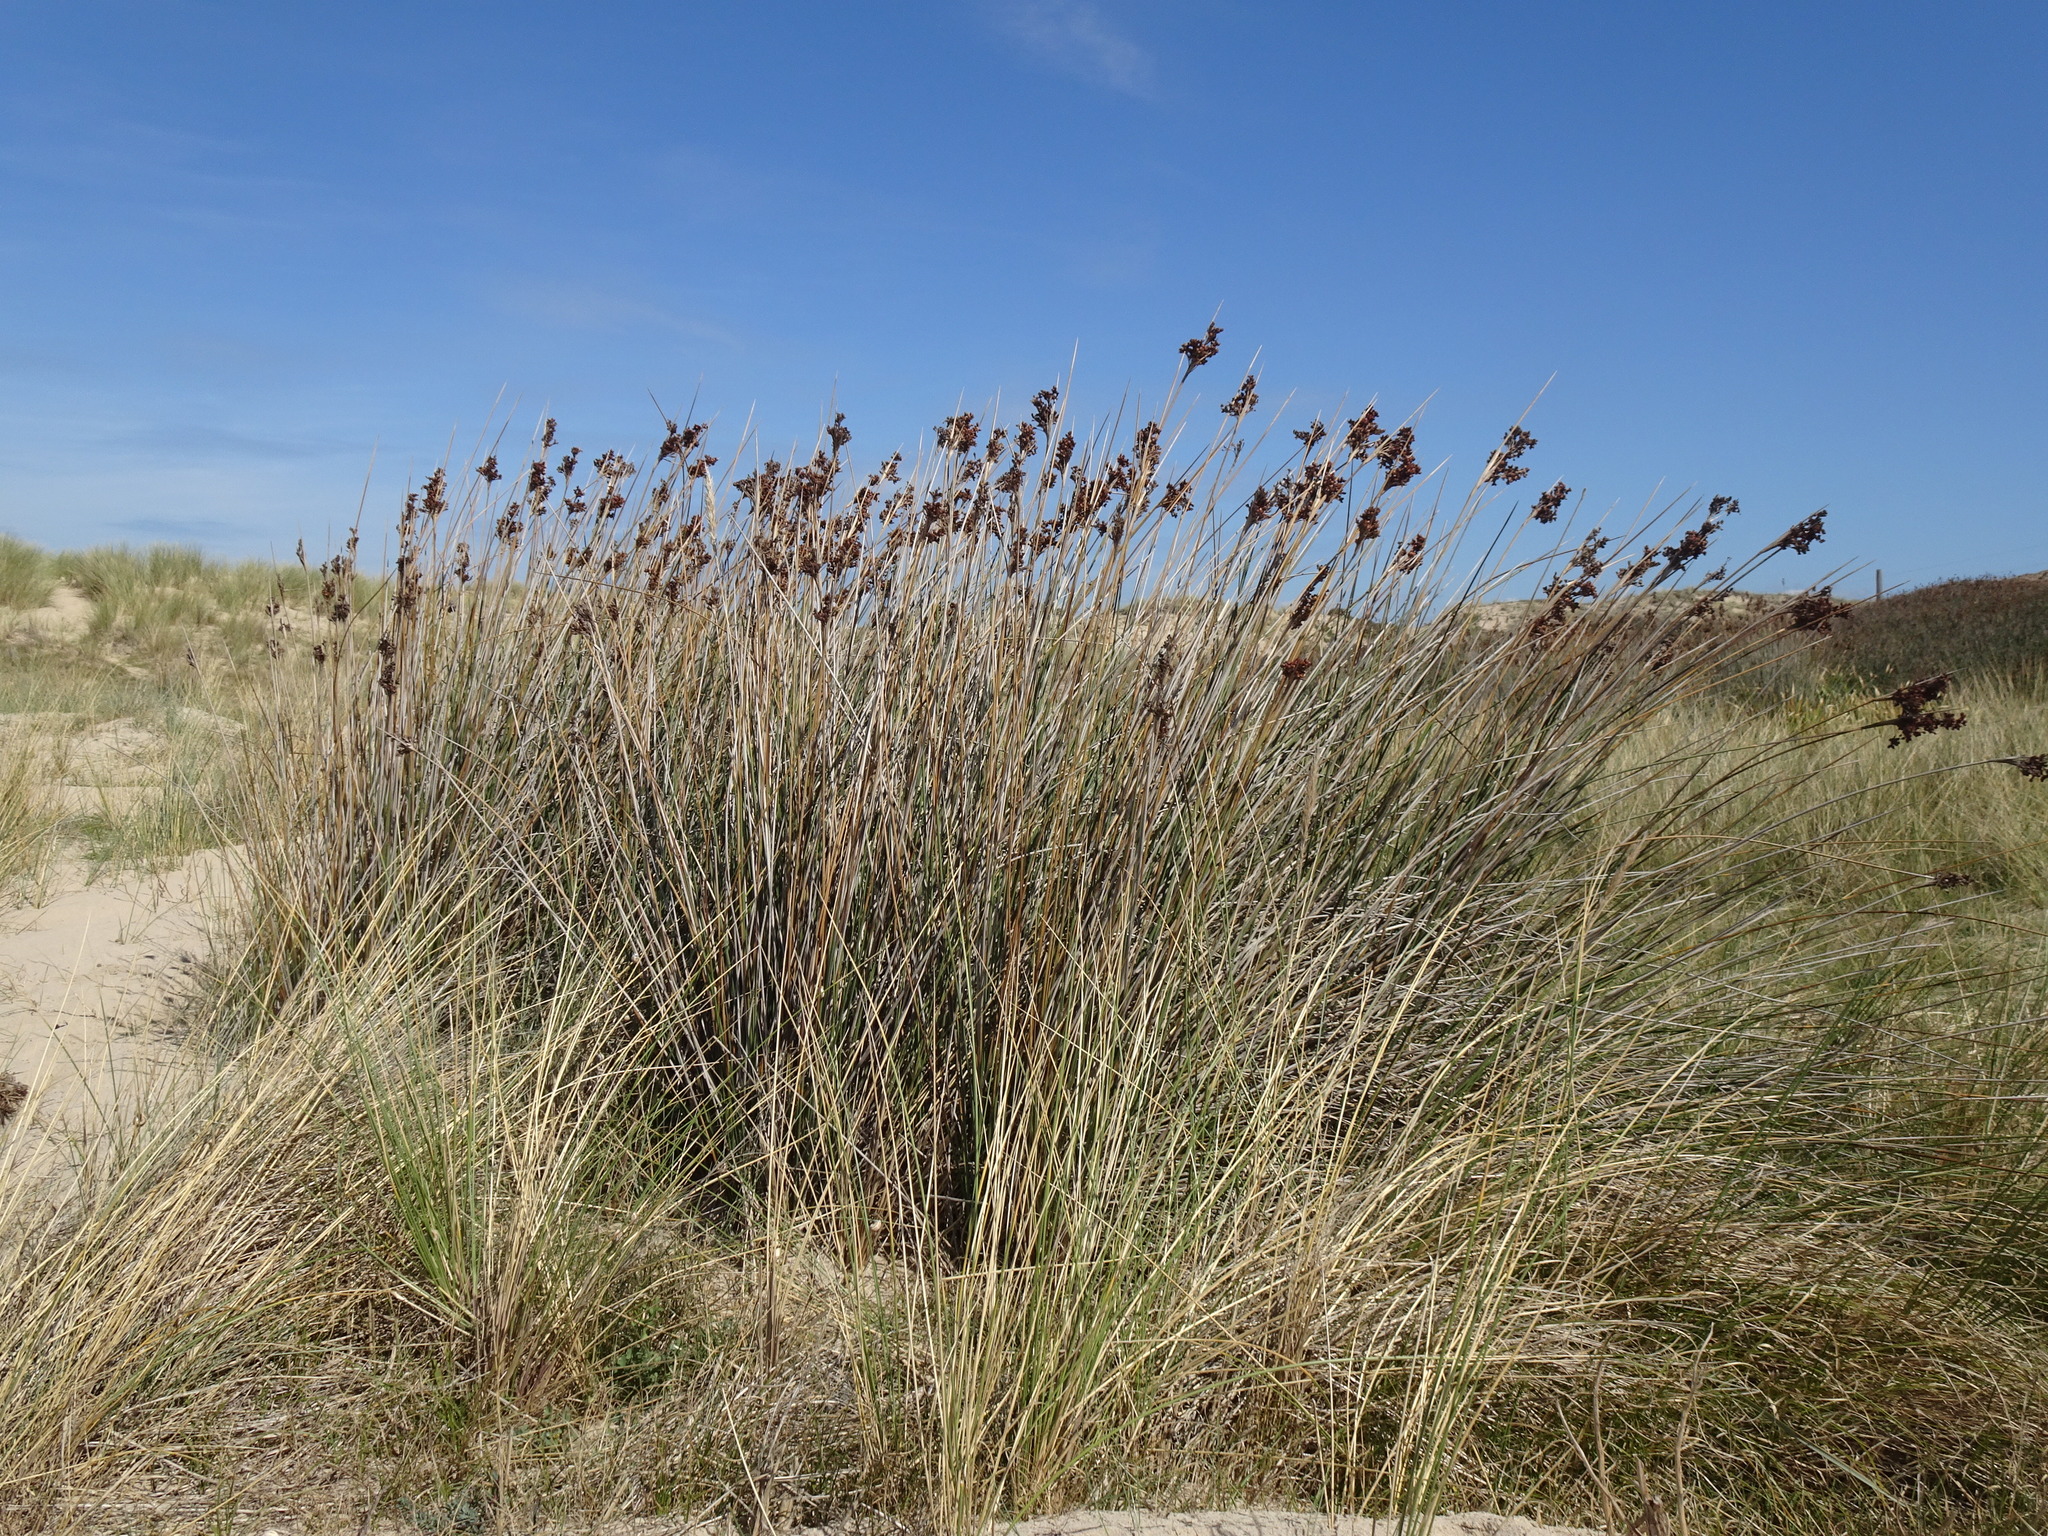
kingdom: Plantae
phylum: Tracheophyta
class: Liliopsida
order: Poales
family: Juncaceae
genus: Juncus
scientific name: Juncus acutus
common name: Sharp rush
